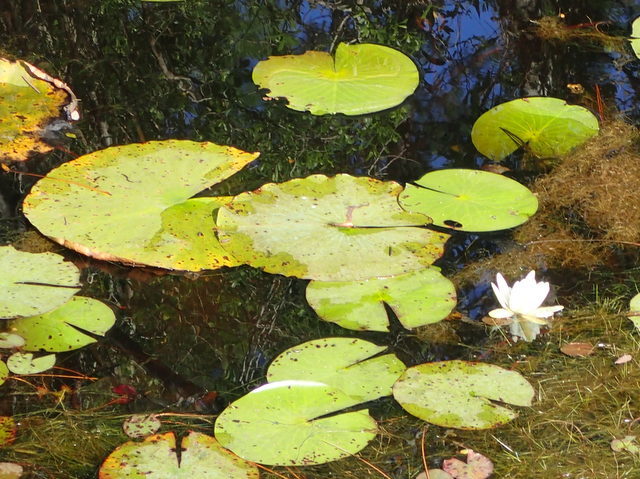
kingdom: Plantae
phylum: Tracheophyta
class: Magnoliopsida
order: Nymphaeales
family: Nymphaeaceae
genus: Nymphaea
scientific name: Nymphaea odorata
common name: Fragrant water-lily
